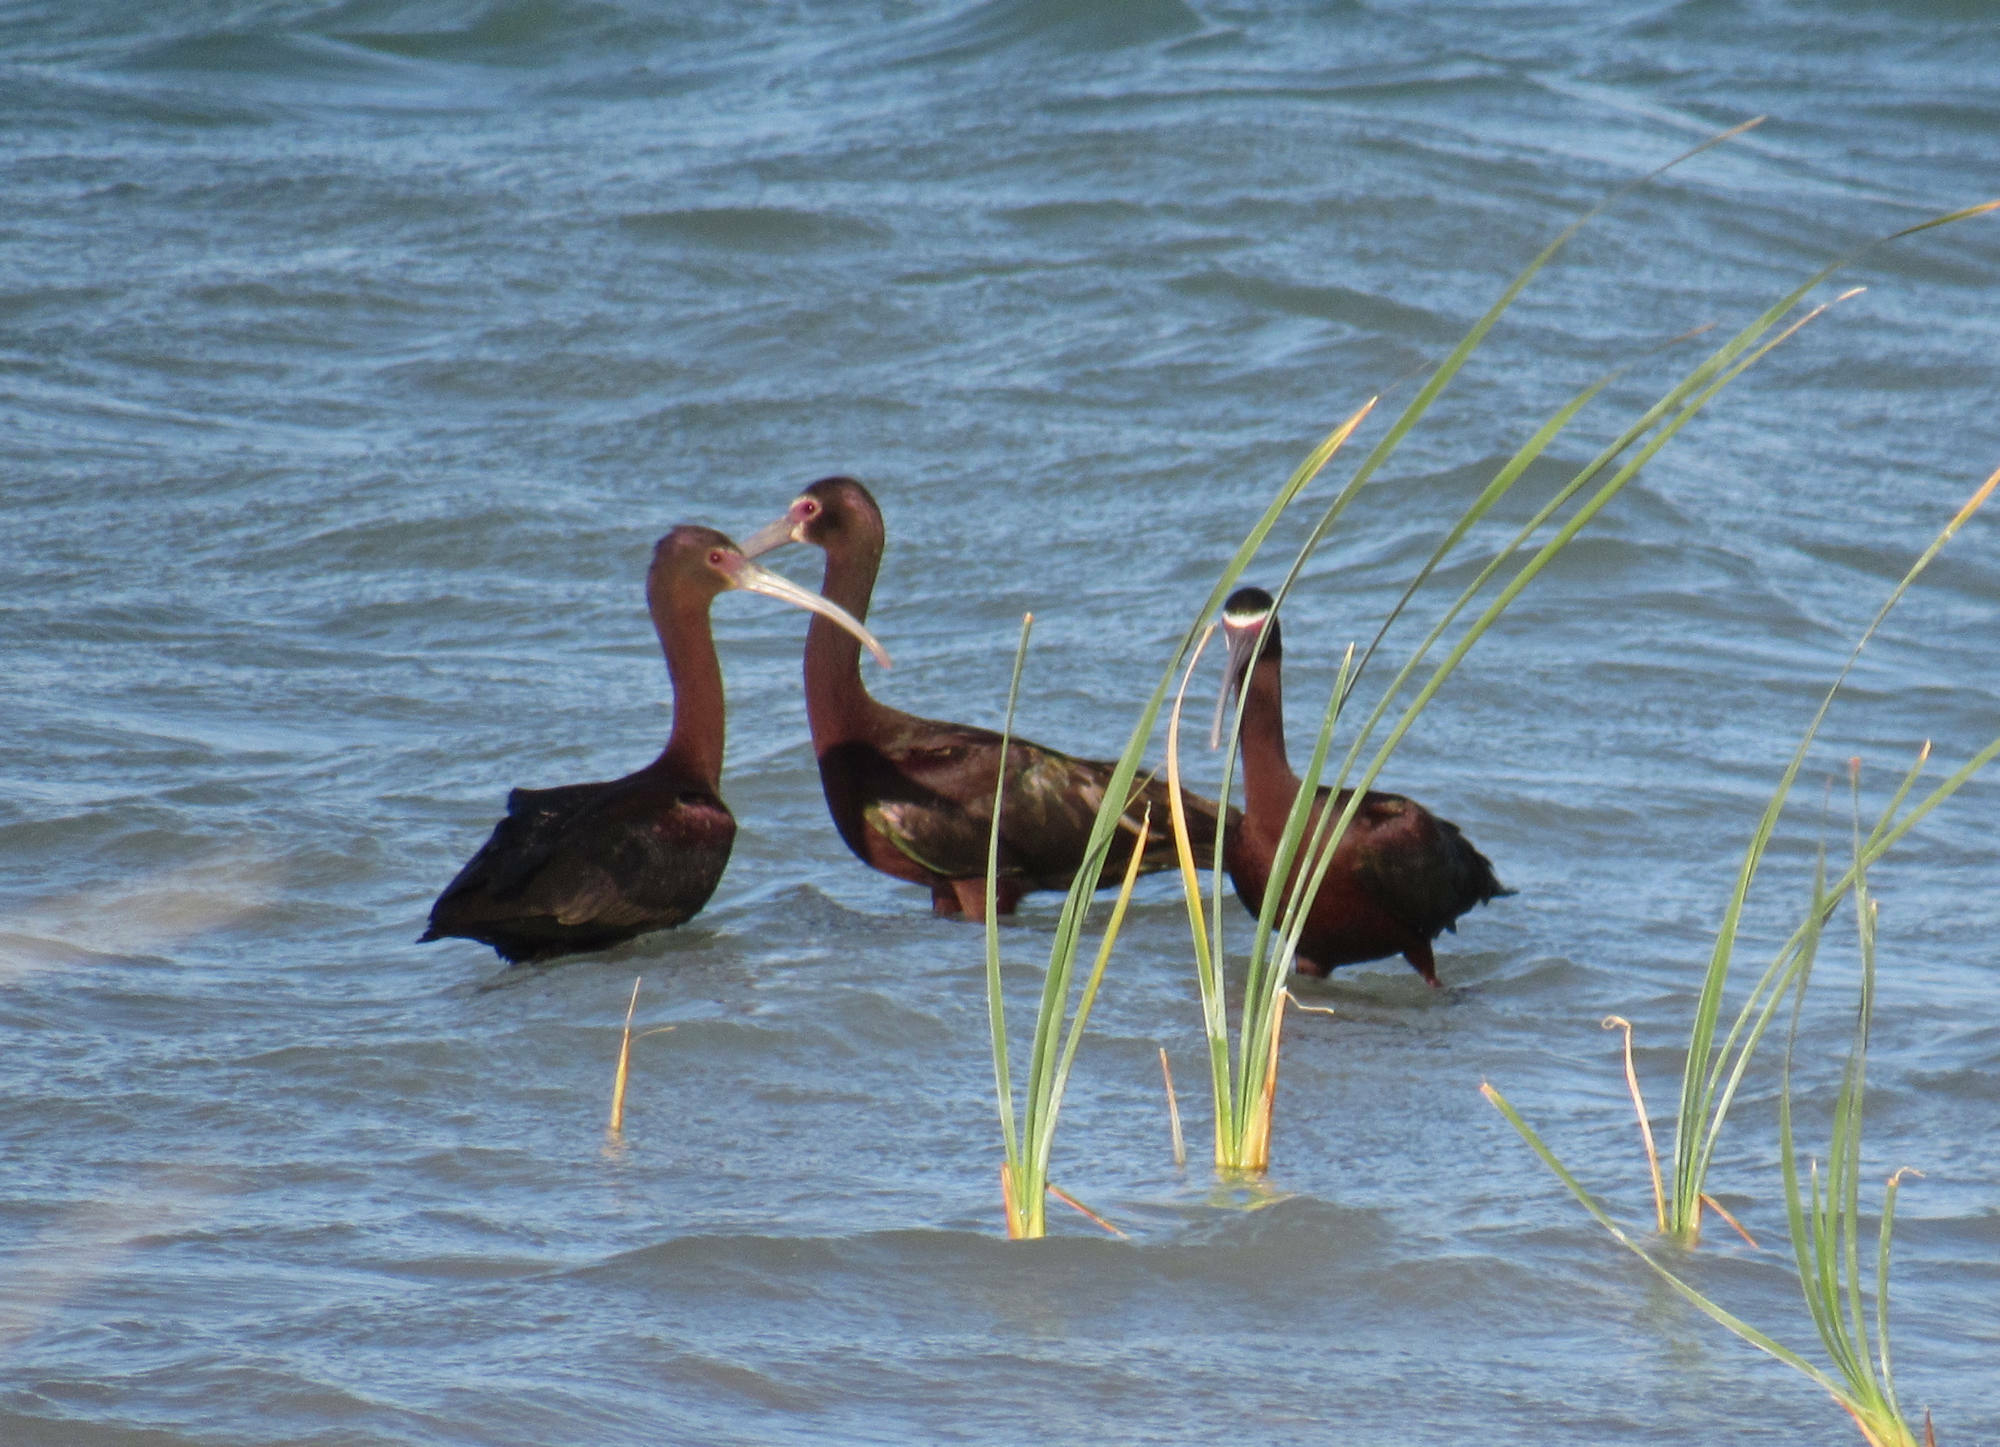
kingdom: Animalia
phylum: Chordata
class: Aves
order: Pelecaniformes
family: Threskiornithidae
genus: Plegadis
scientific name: Plegadis chihi
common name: White-faced ibis
